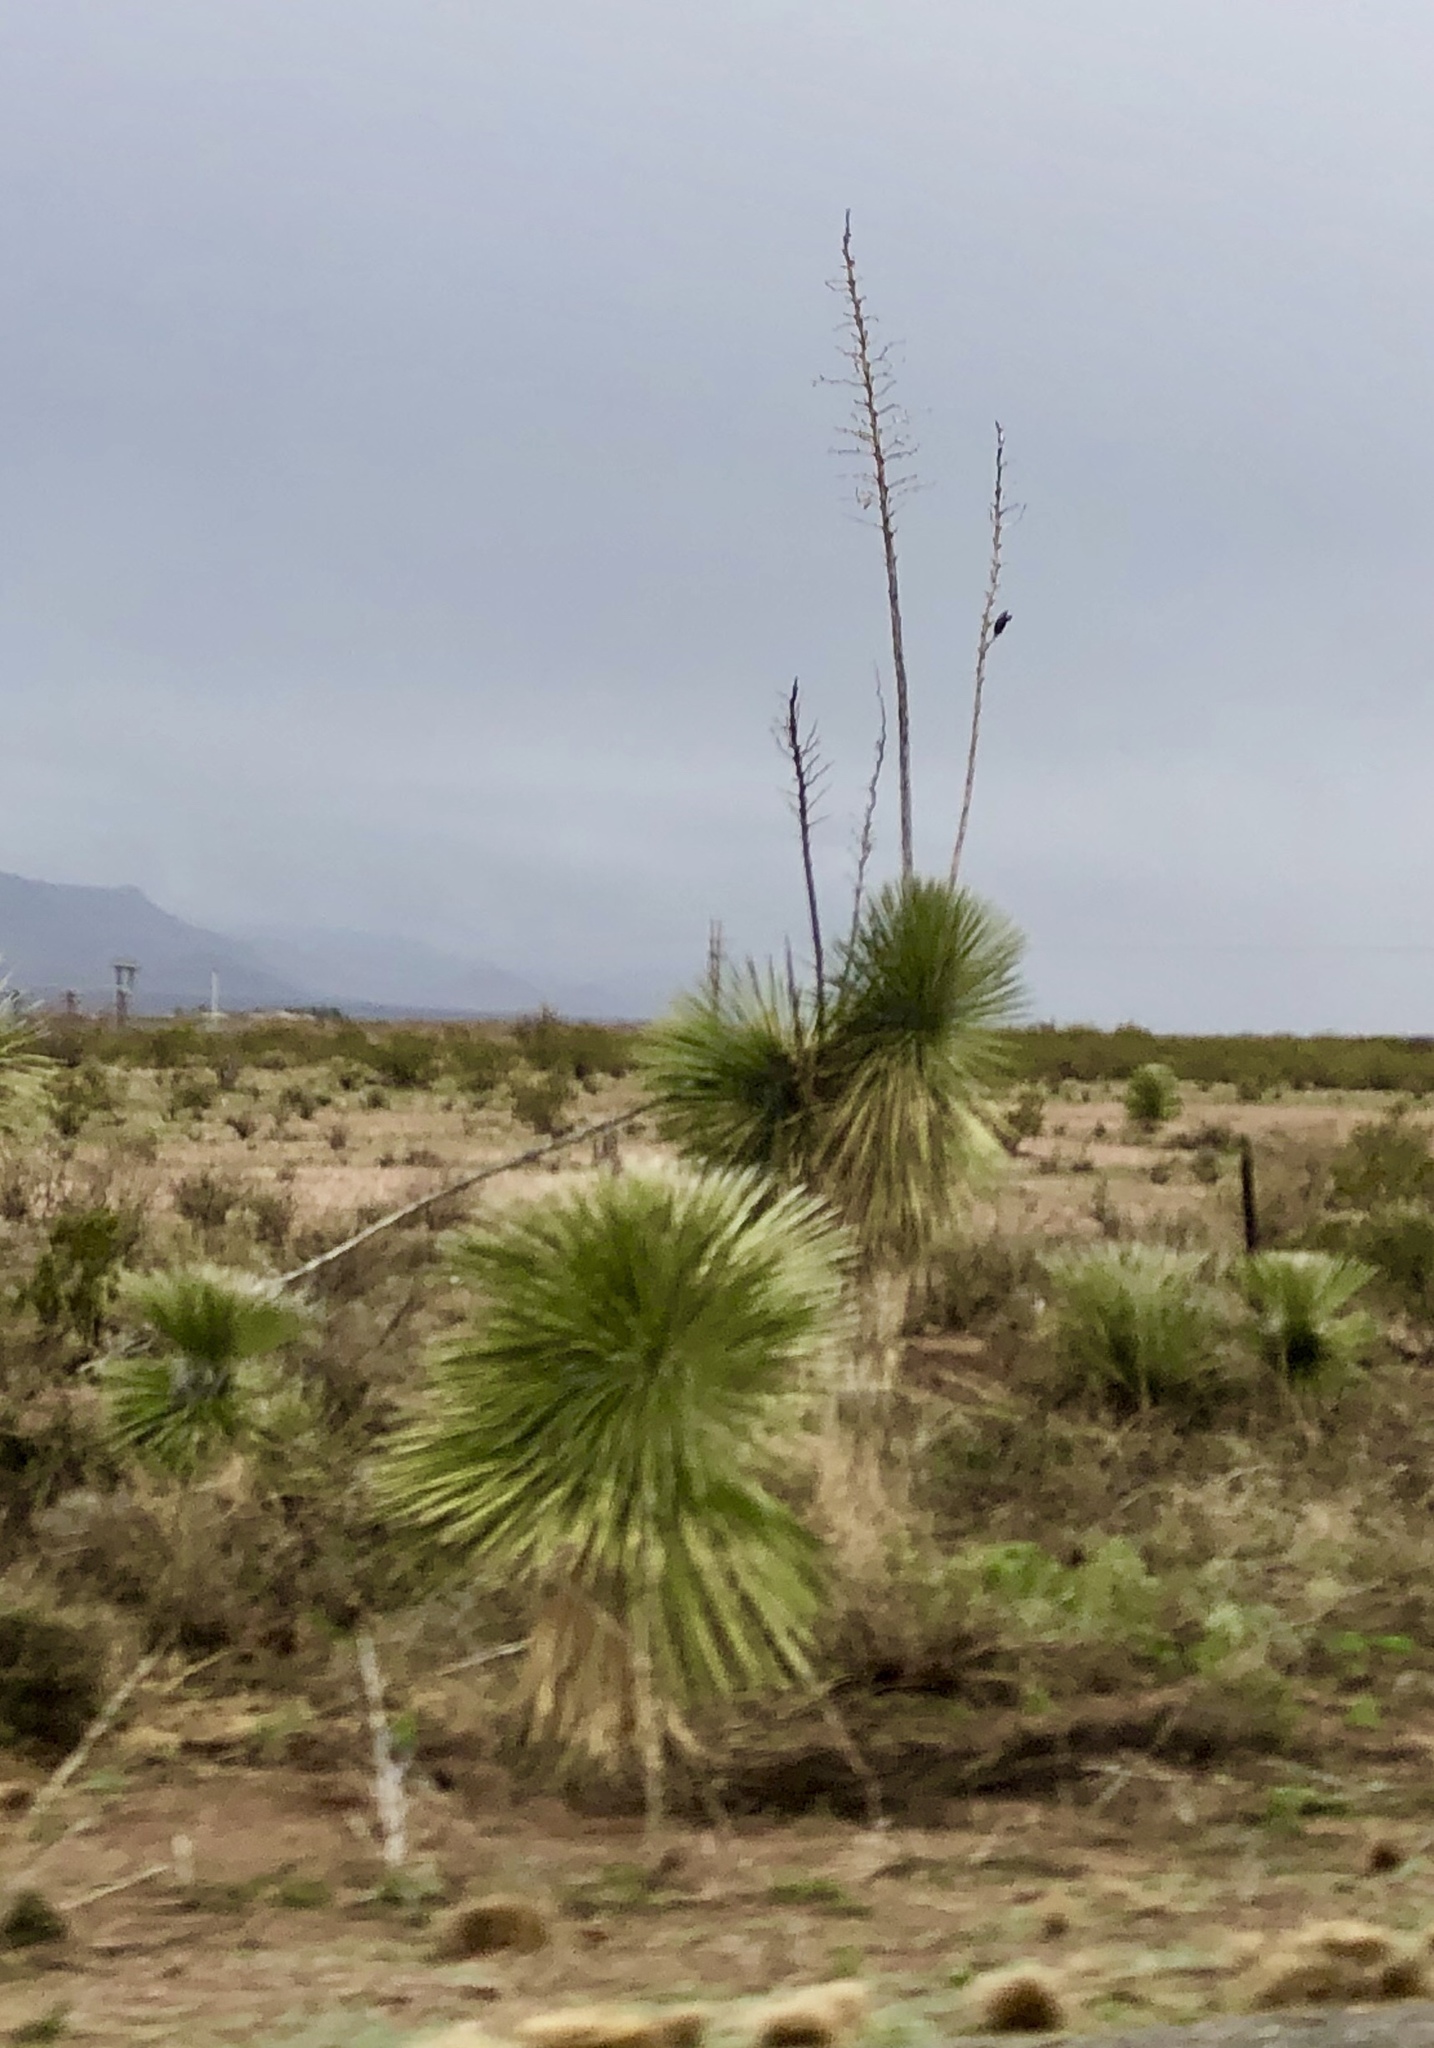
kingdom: Plantae
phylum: Tracheophyta
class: Liliopsida
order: Asparagales
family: Asparagaceae
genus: Yucca
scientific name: Yucca elata
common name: Palmella
